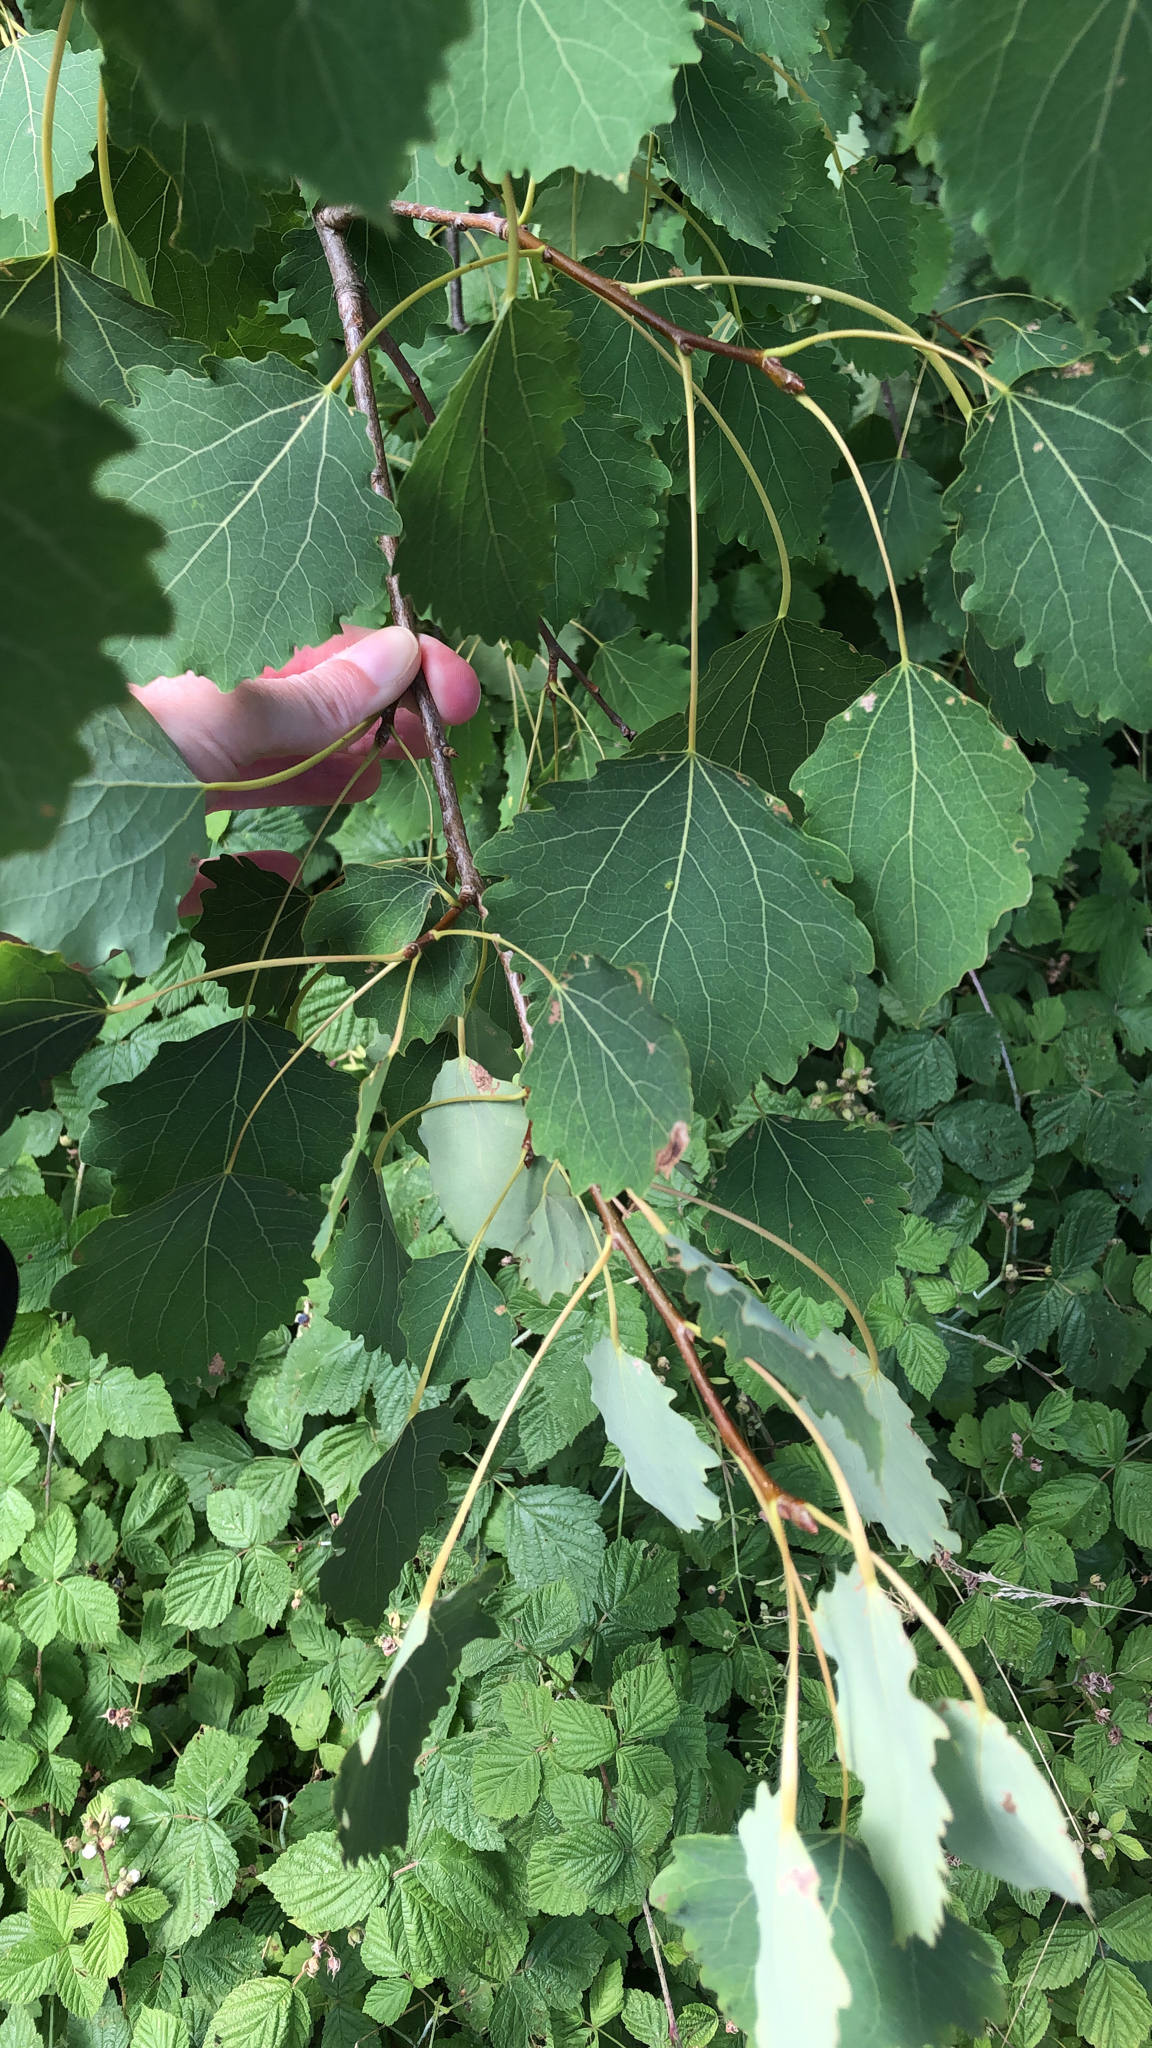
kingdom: Plantae
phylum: Tracheophyta
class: Magnoliopsida
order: Malpighiales
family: Salicaceae
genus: Populus
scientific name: Populus tremula
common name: European aspen
